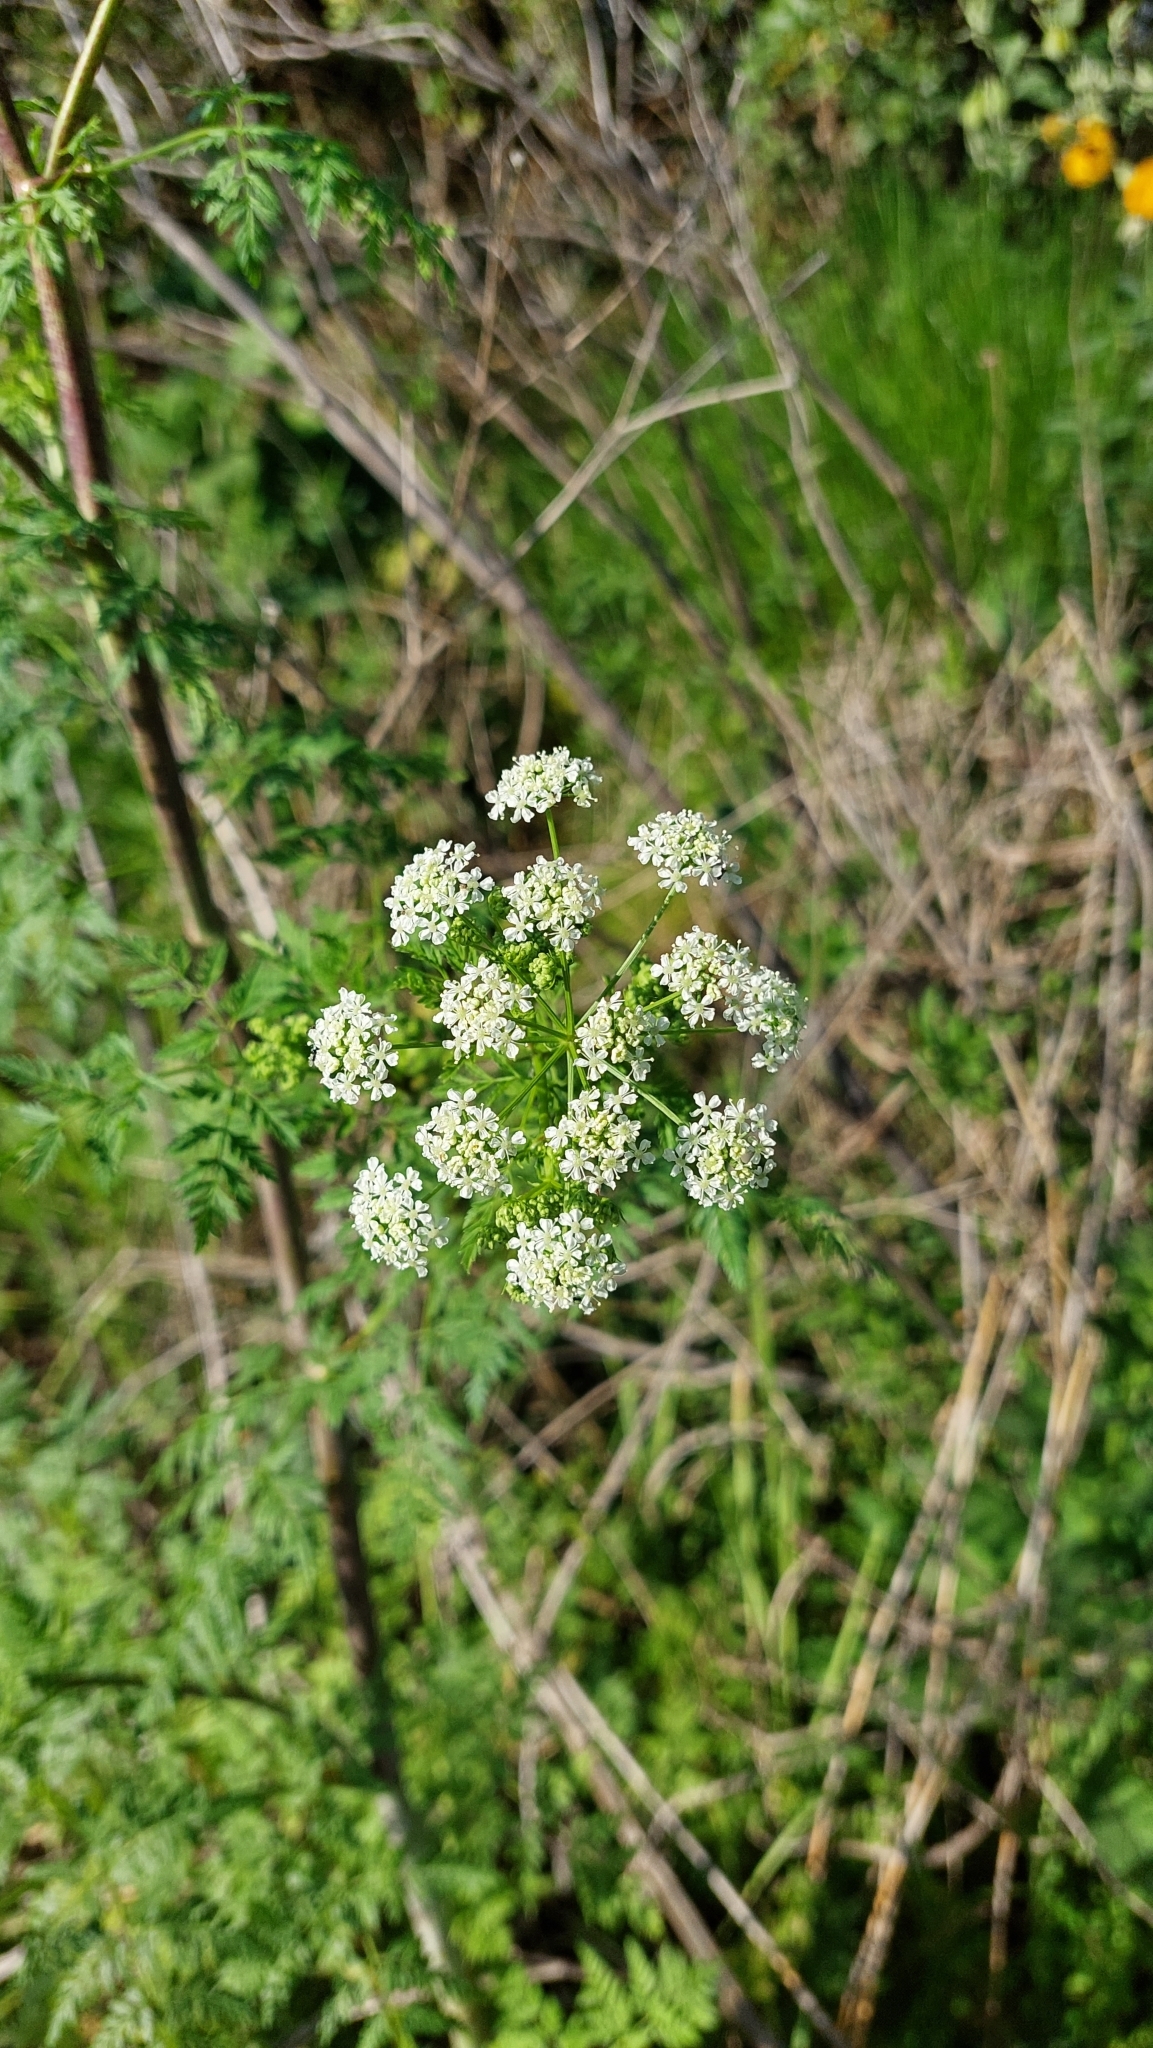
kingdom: Plantae
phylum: Tracheophyta
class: Magnoliopsida
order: Apiales
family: Apiaceae
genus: Conium
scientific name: Conium maculatum
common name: Hemlock
